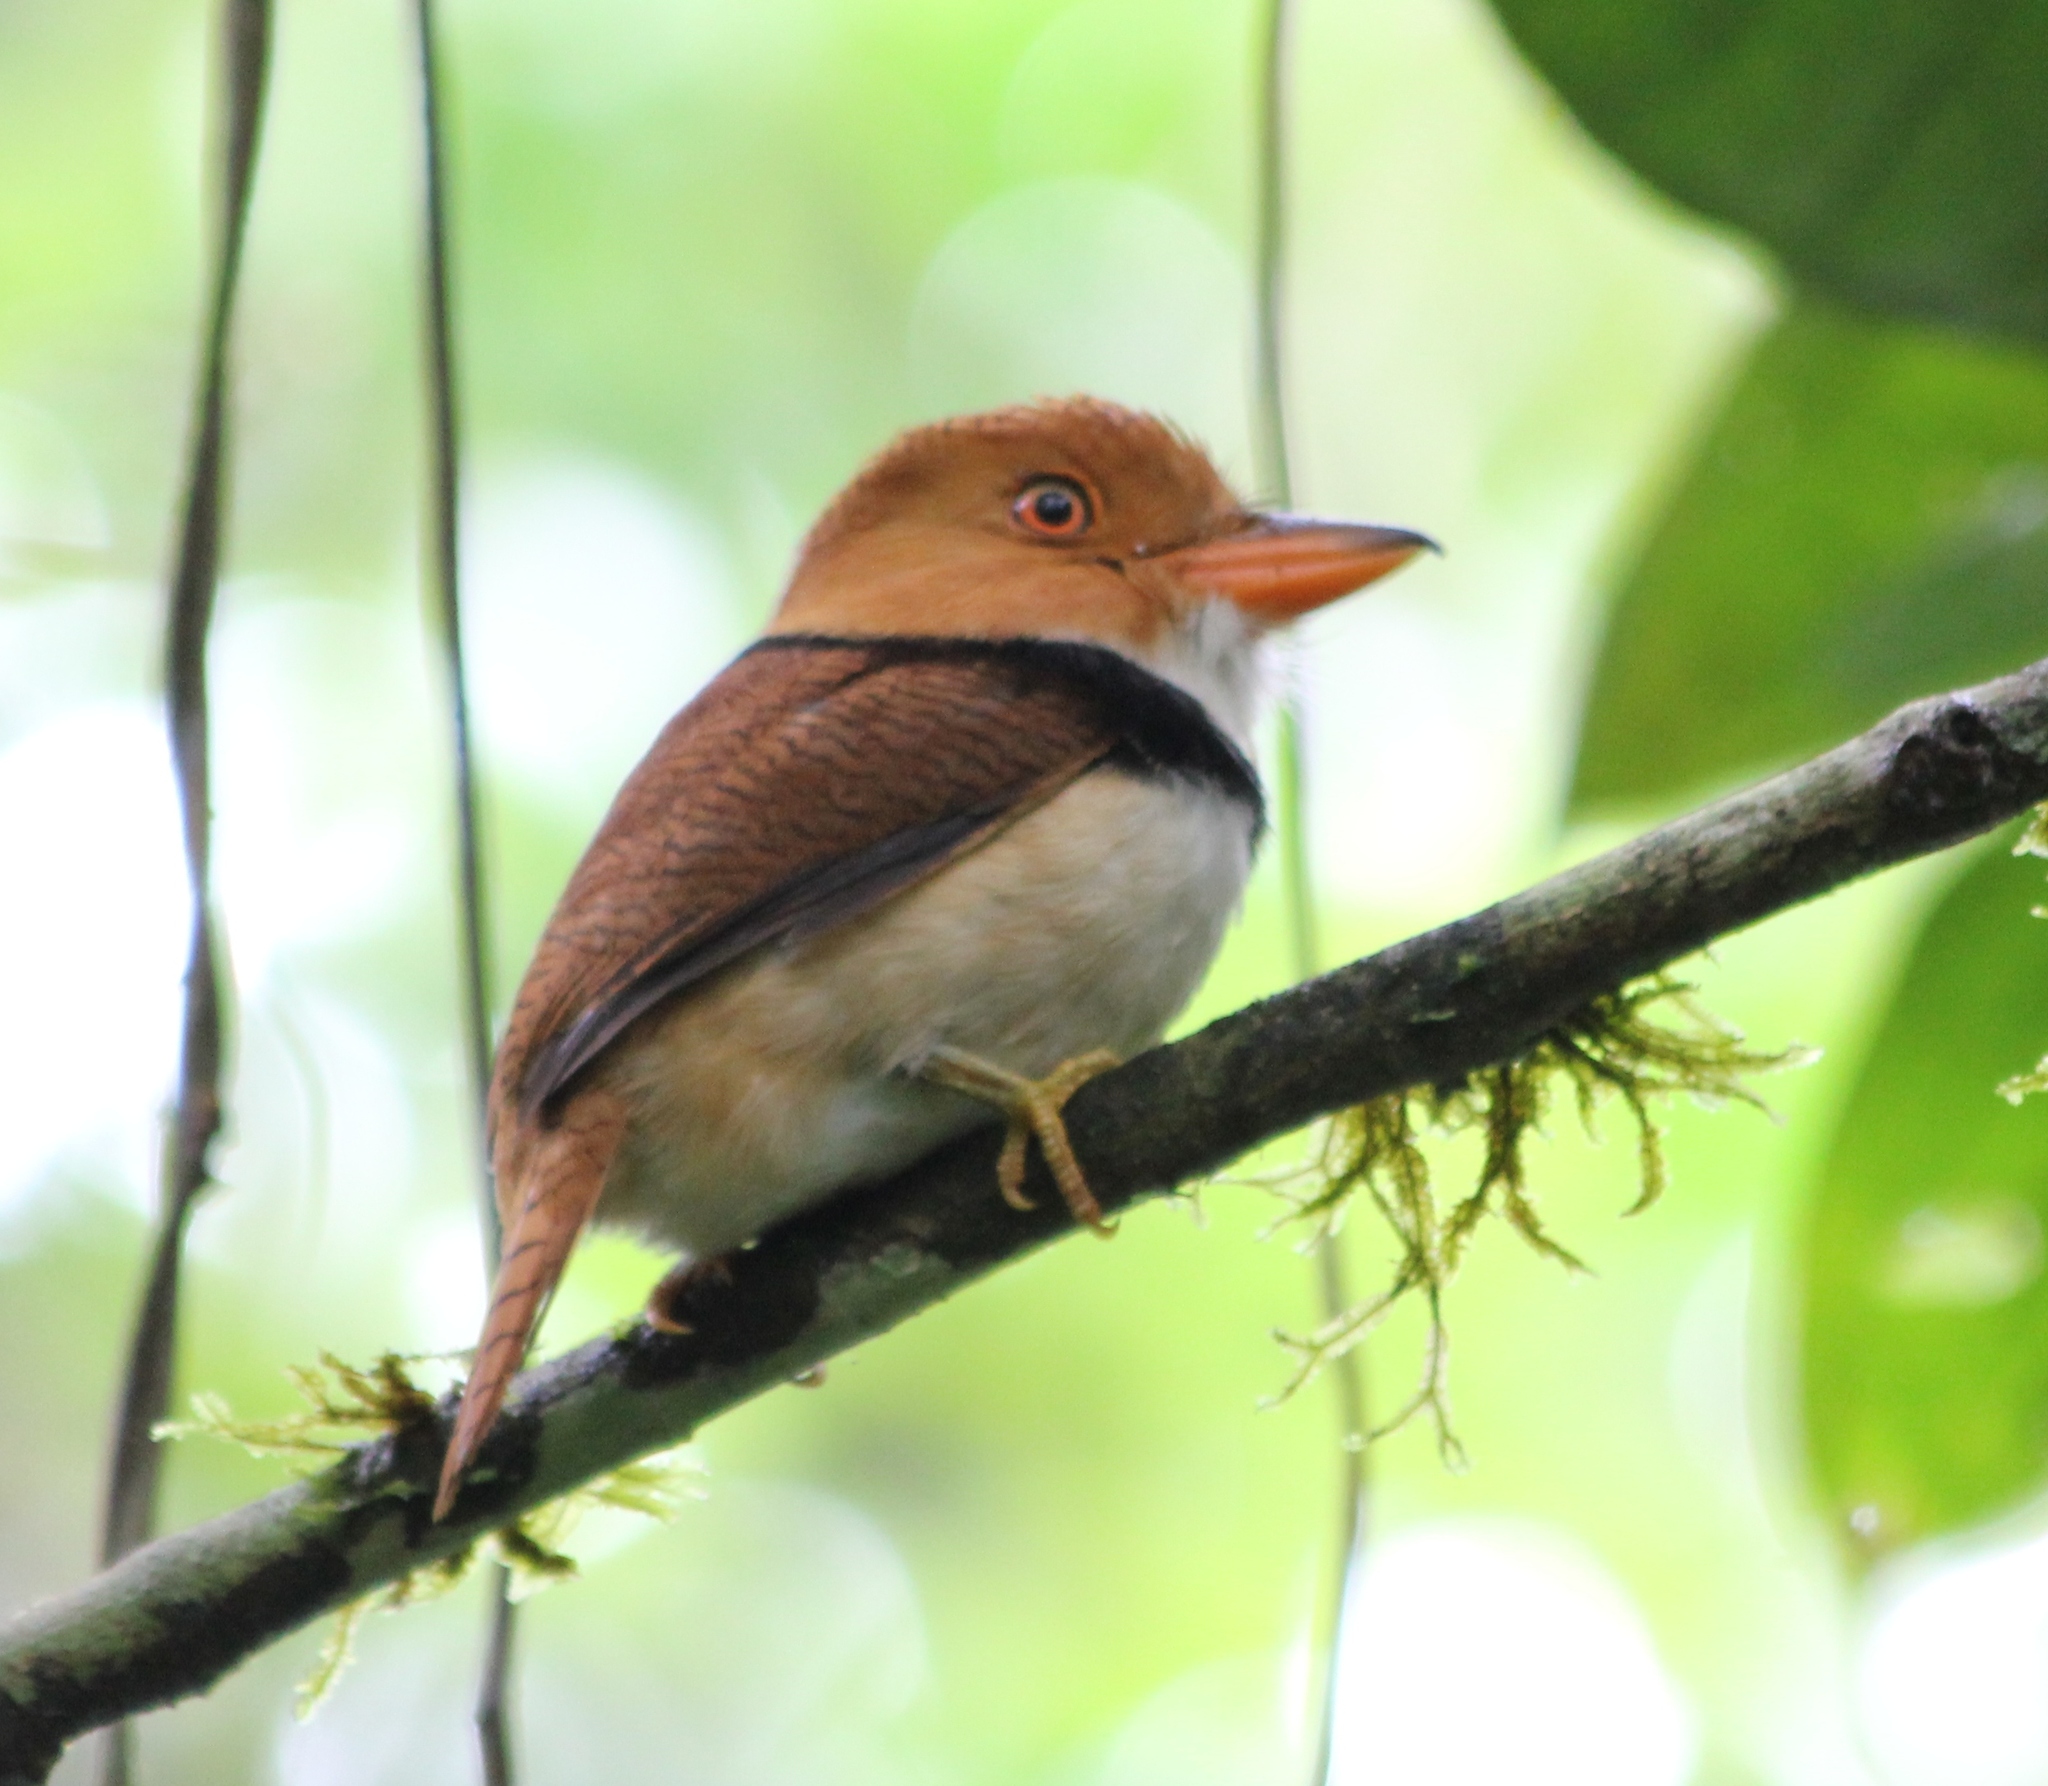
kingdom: Animalia
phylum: Chordata
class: Aves
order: Piciformes
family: Bucconidae
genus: Bucco
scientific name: Bucco capensis
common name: Collared puffbird
